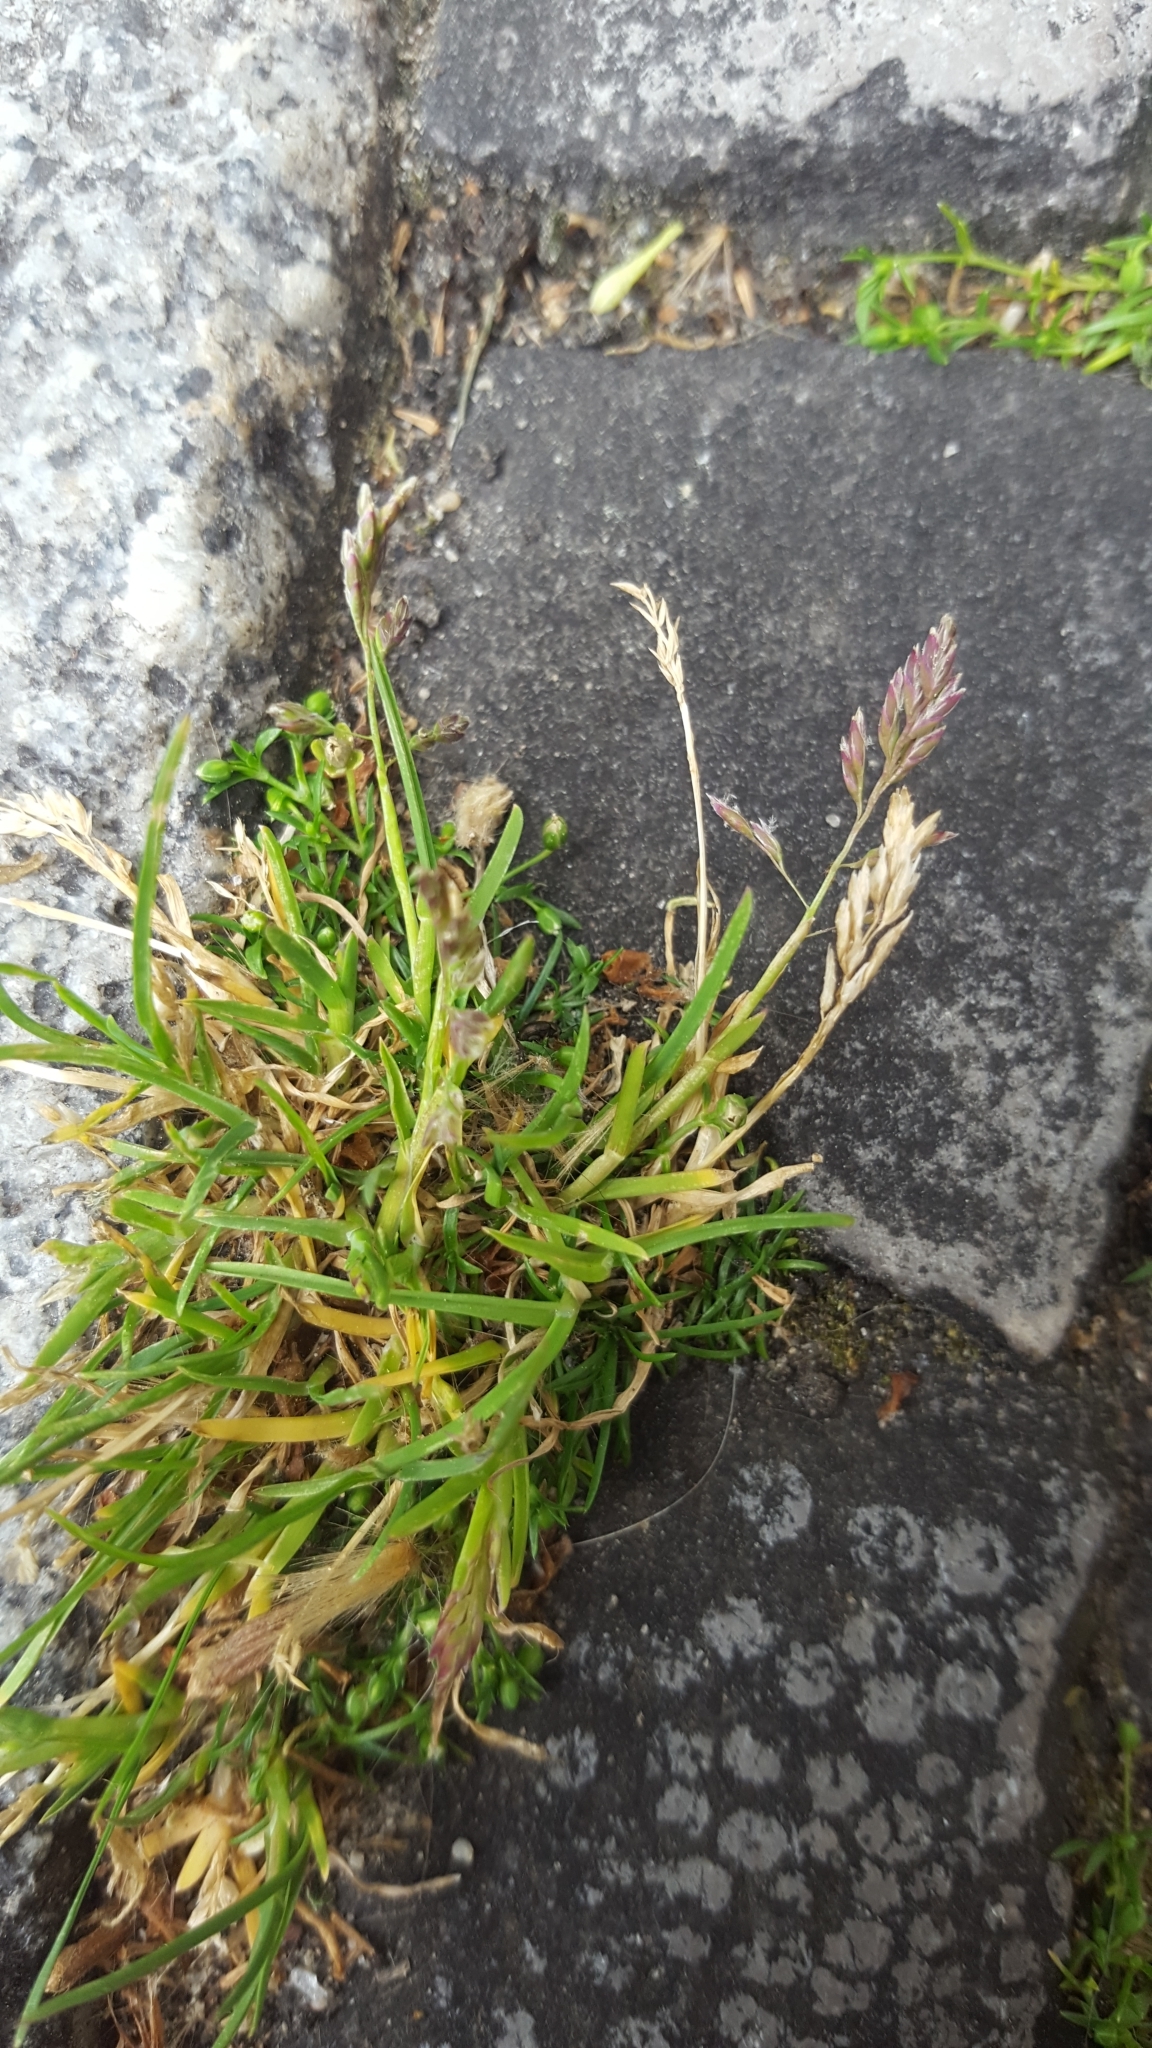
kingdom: Plantae
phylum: Tracheophyta
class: Liliopsida
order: Poales
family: Poaceae
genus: Poa
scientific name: Poa annua
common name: Annual bluegrass
